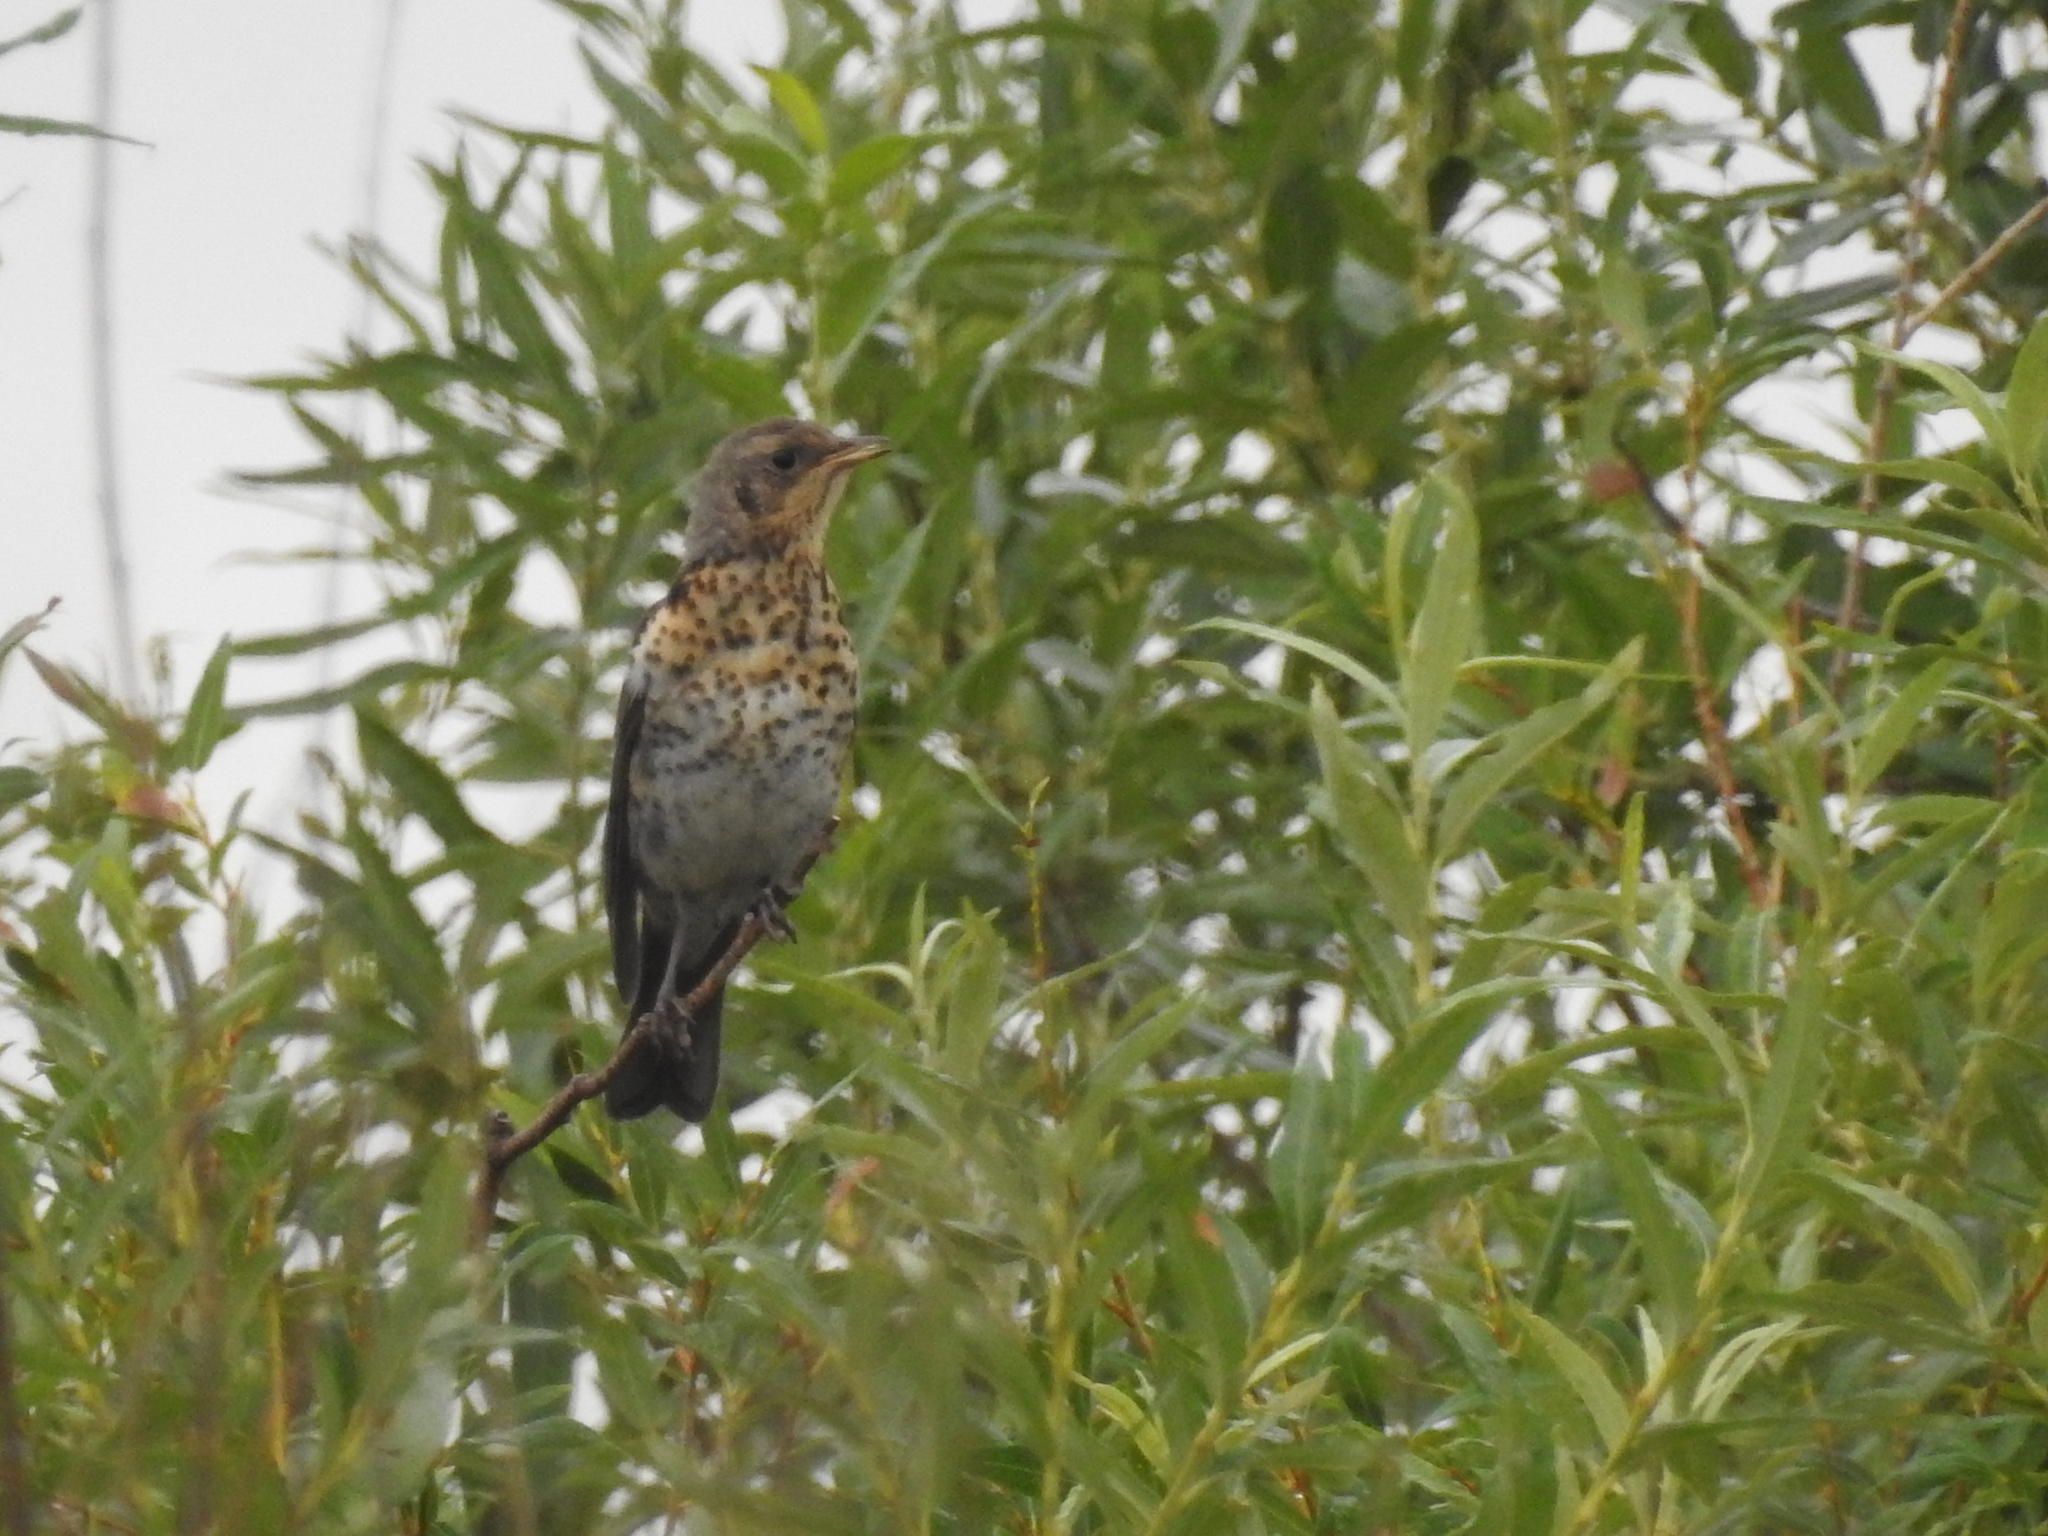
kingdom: Animalia
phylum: Chordata
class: Aves
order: Passeriformes
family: Turdidae
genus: Turdus
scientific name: Turdus pilaris
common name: Fieldfare
